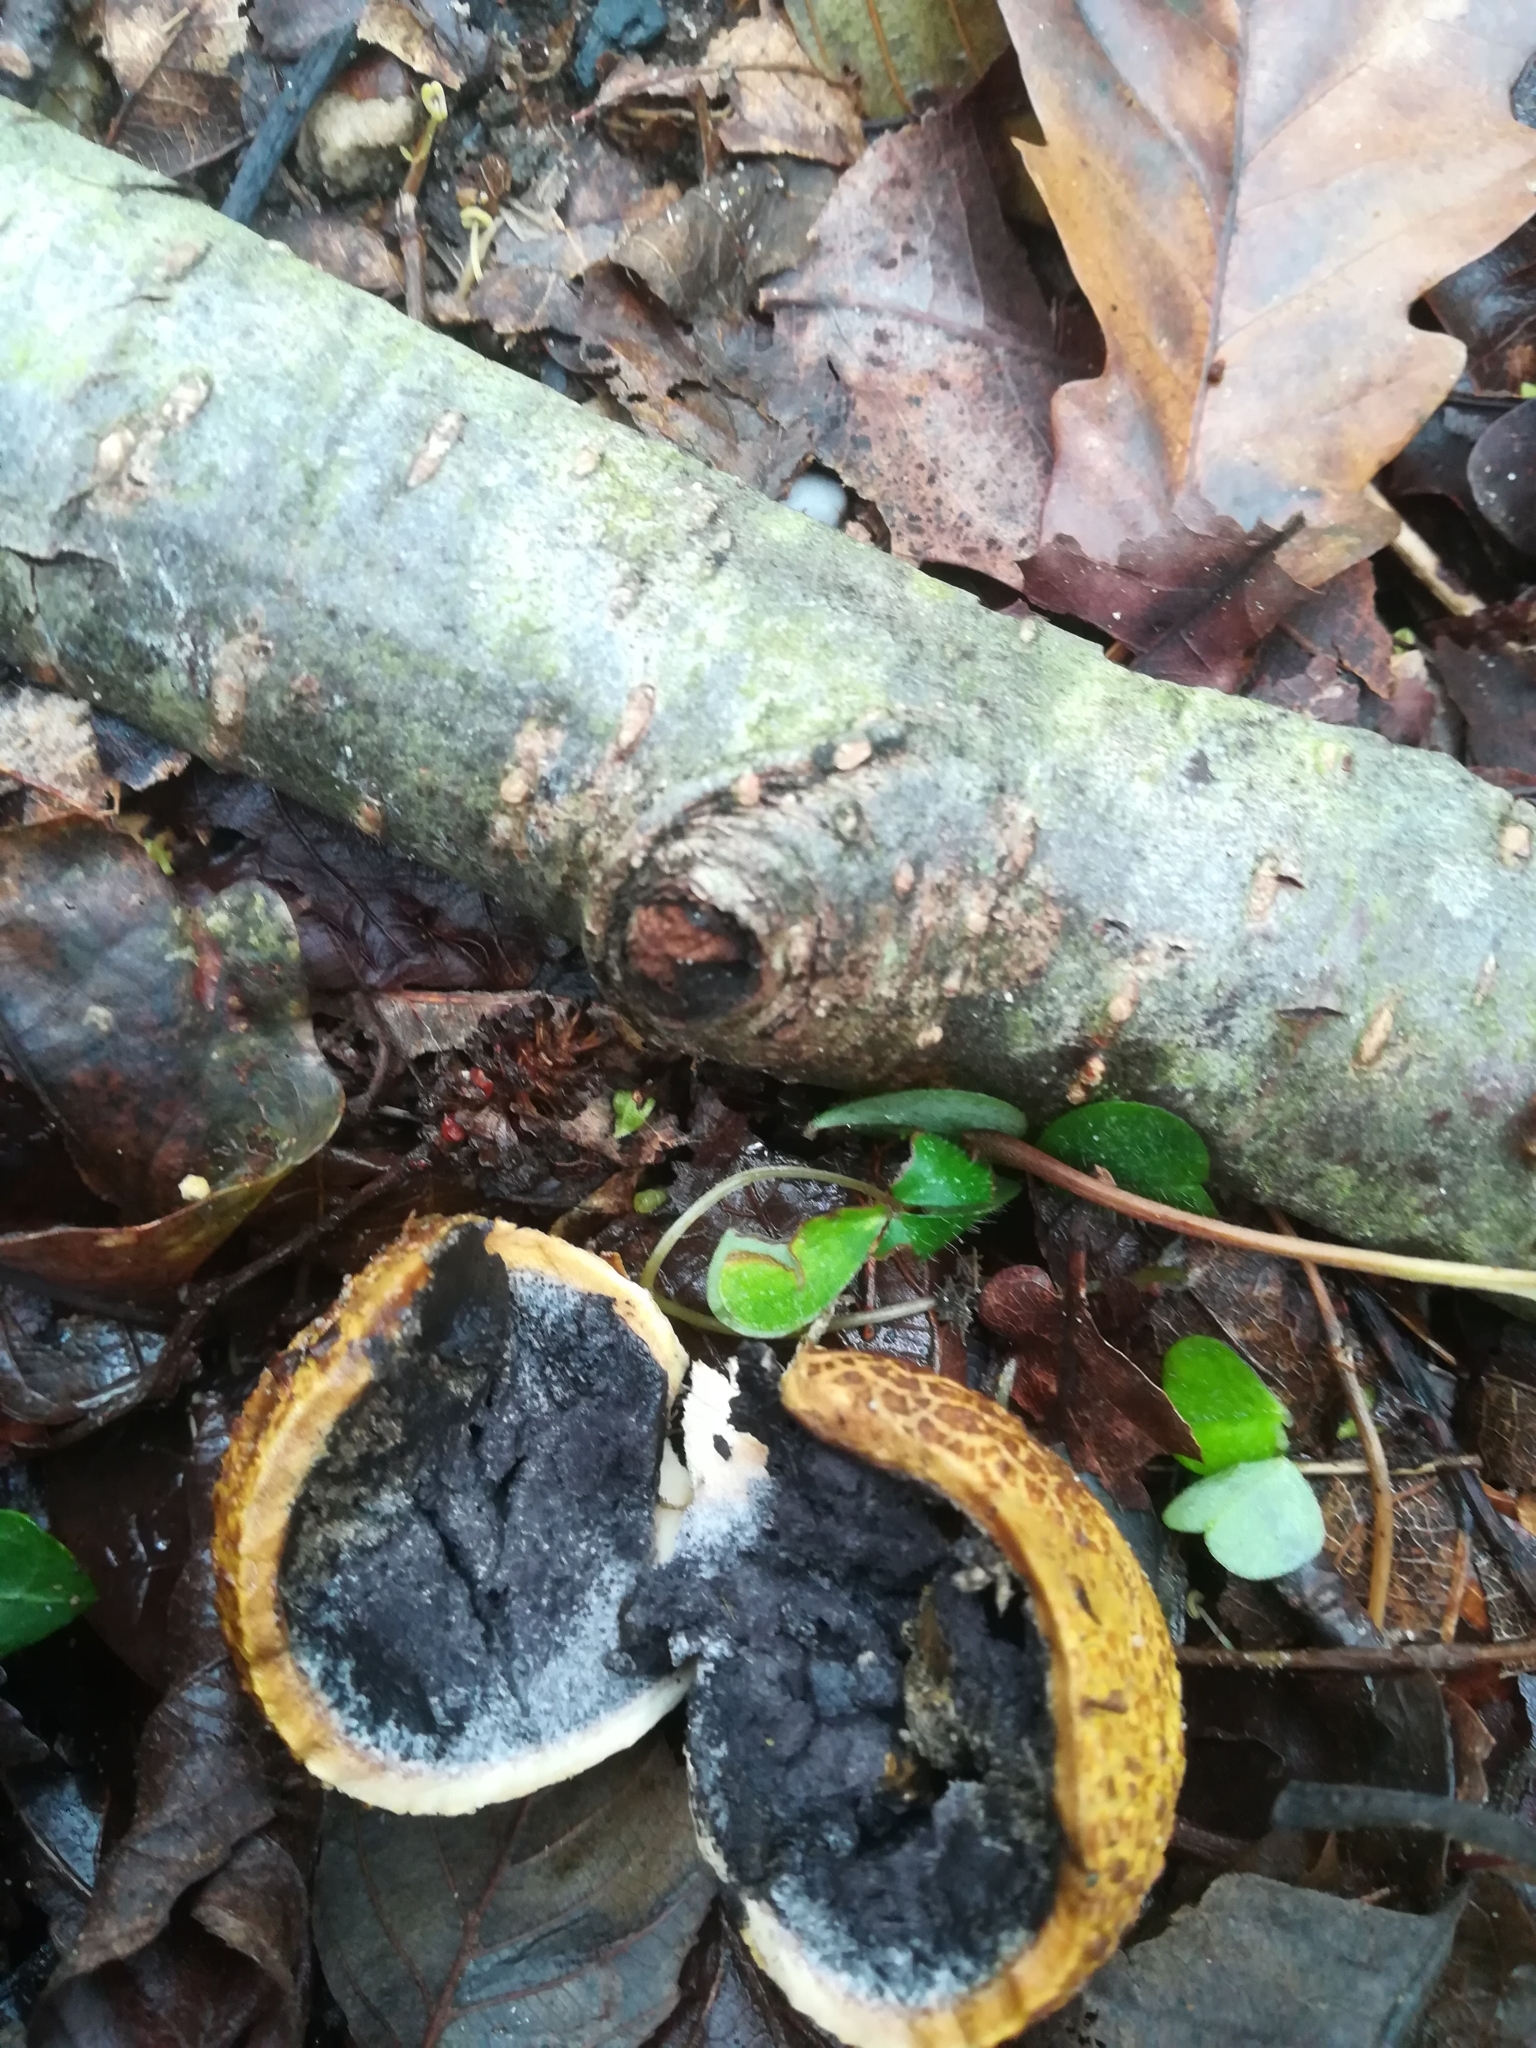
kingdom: Fungi
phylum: Basidiomycota
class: Agaricomycetes
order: Boletales
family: Sclerodermataceae
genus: Scleroderma
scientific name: Scleroderma citrinum
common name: Common earthball
